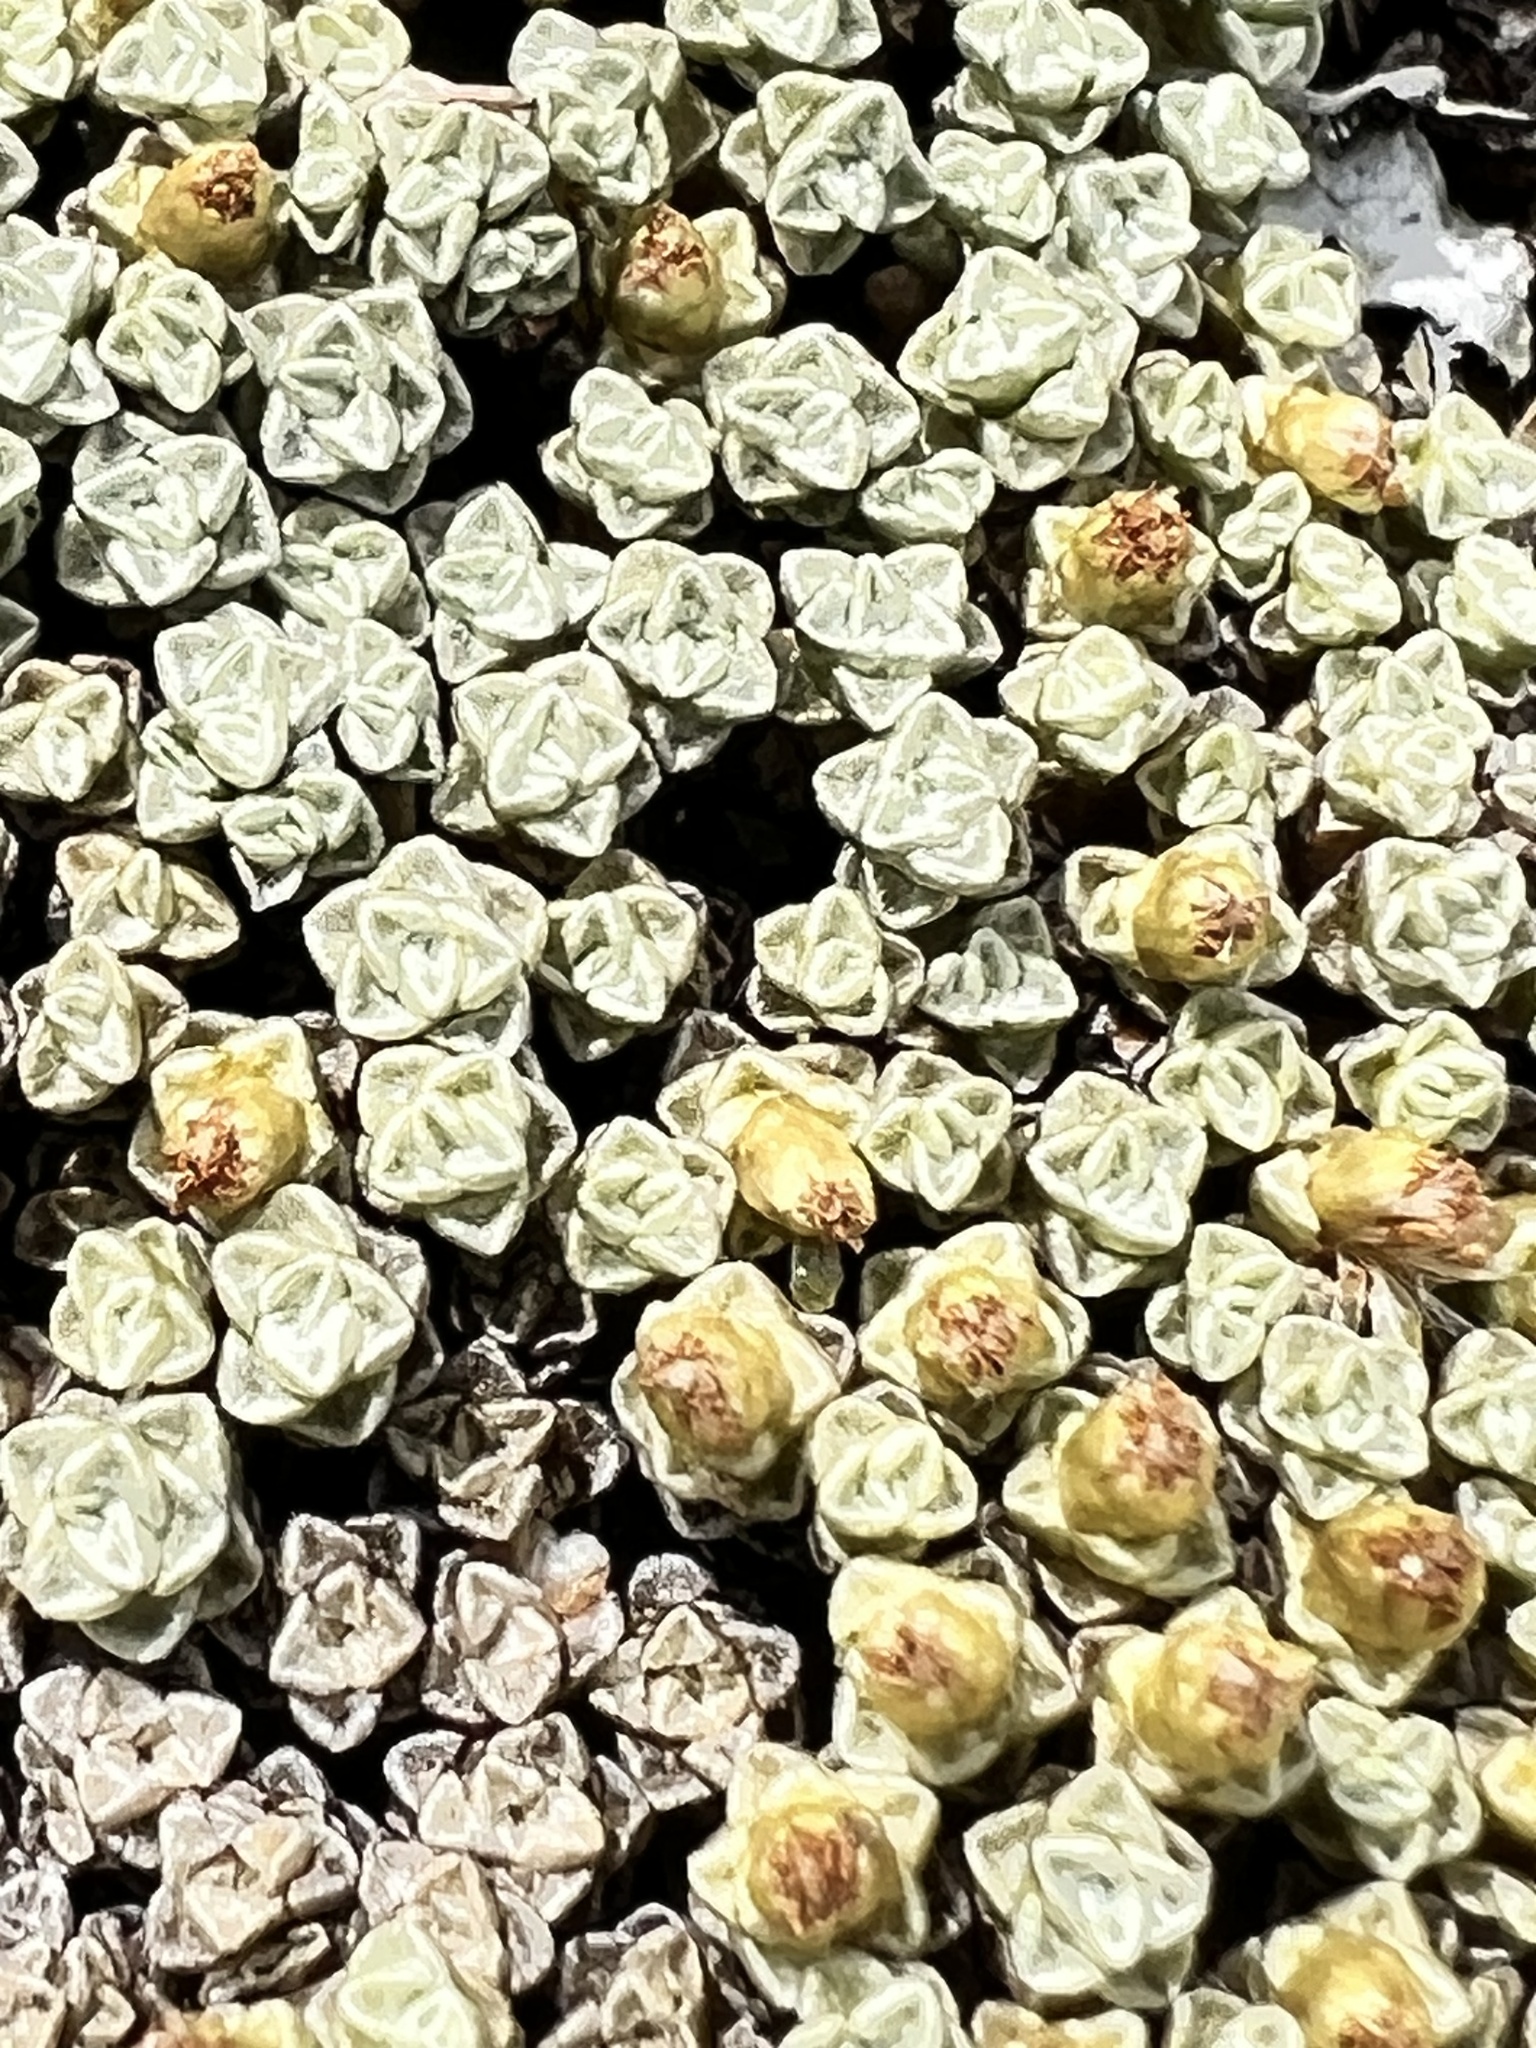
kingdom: Plantae
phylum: Tracheophyta
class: Magnoliopsida
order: Asterales
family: Asteraceae
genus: Raoulia
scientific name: Raoulia australis
